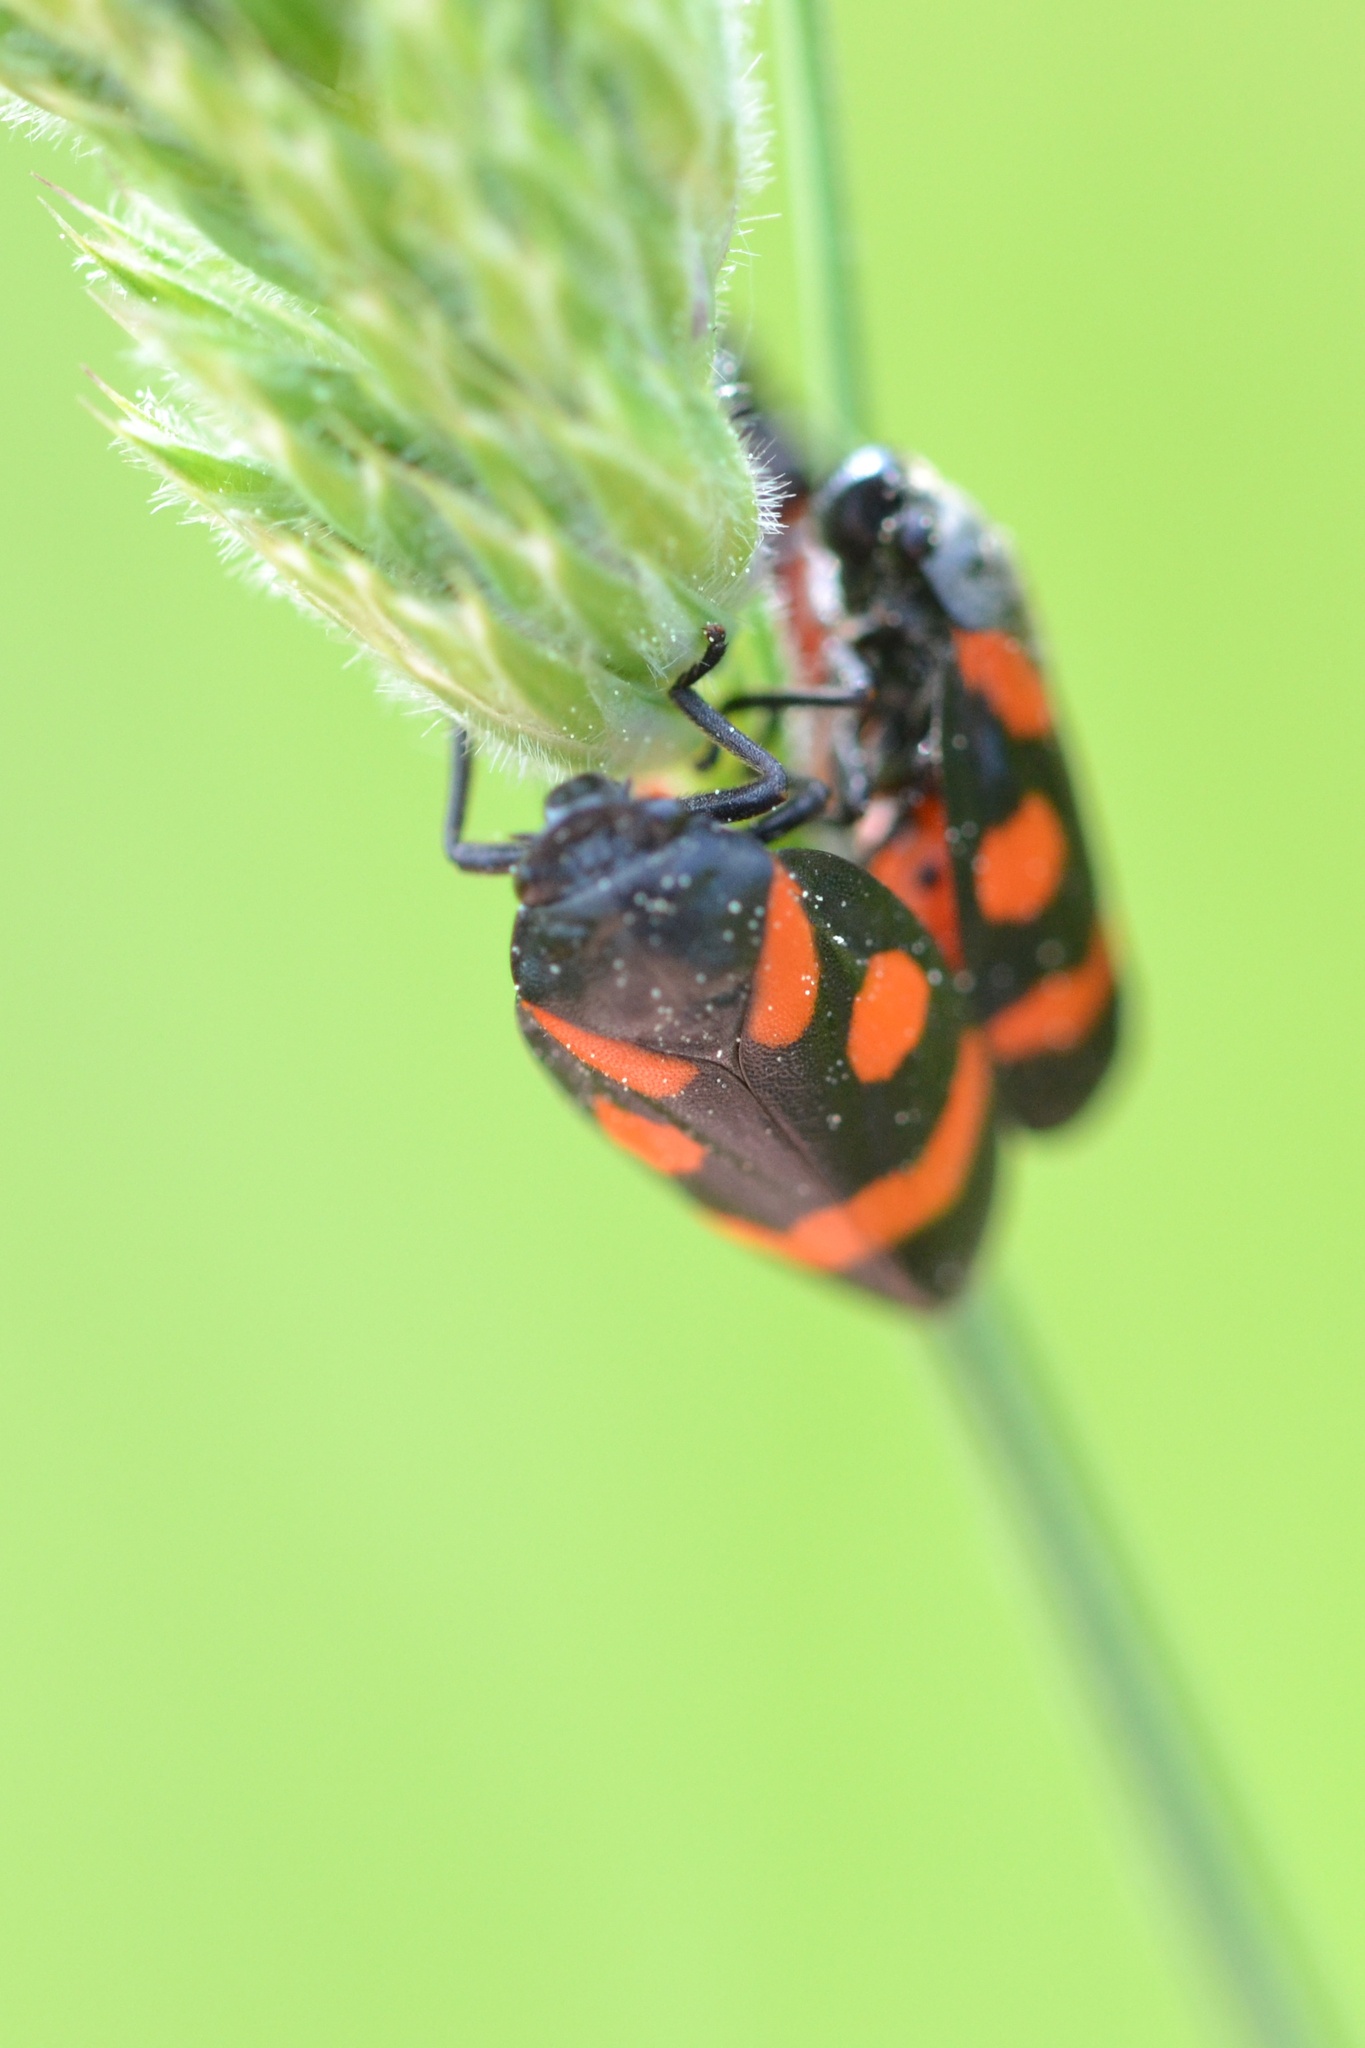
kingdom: Animalia
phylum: Arthropoda
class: Insecta
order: Hemiptera
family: Cercopidae
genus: Cercopis
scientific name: Cercopis sanguinolenta
